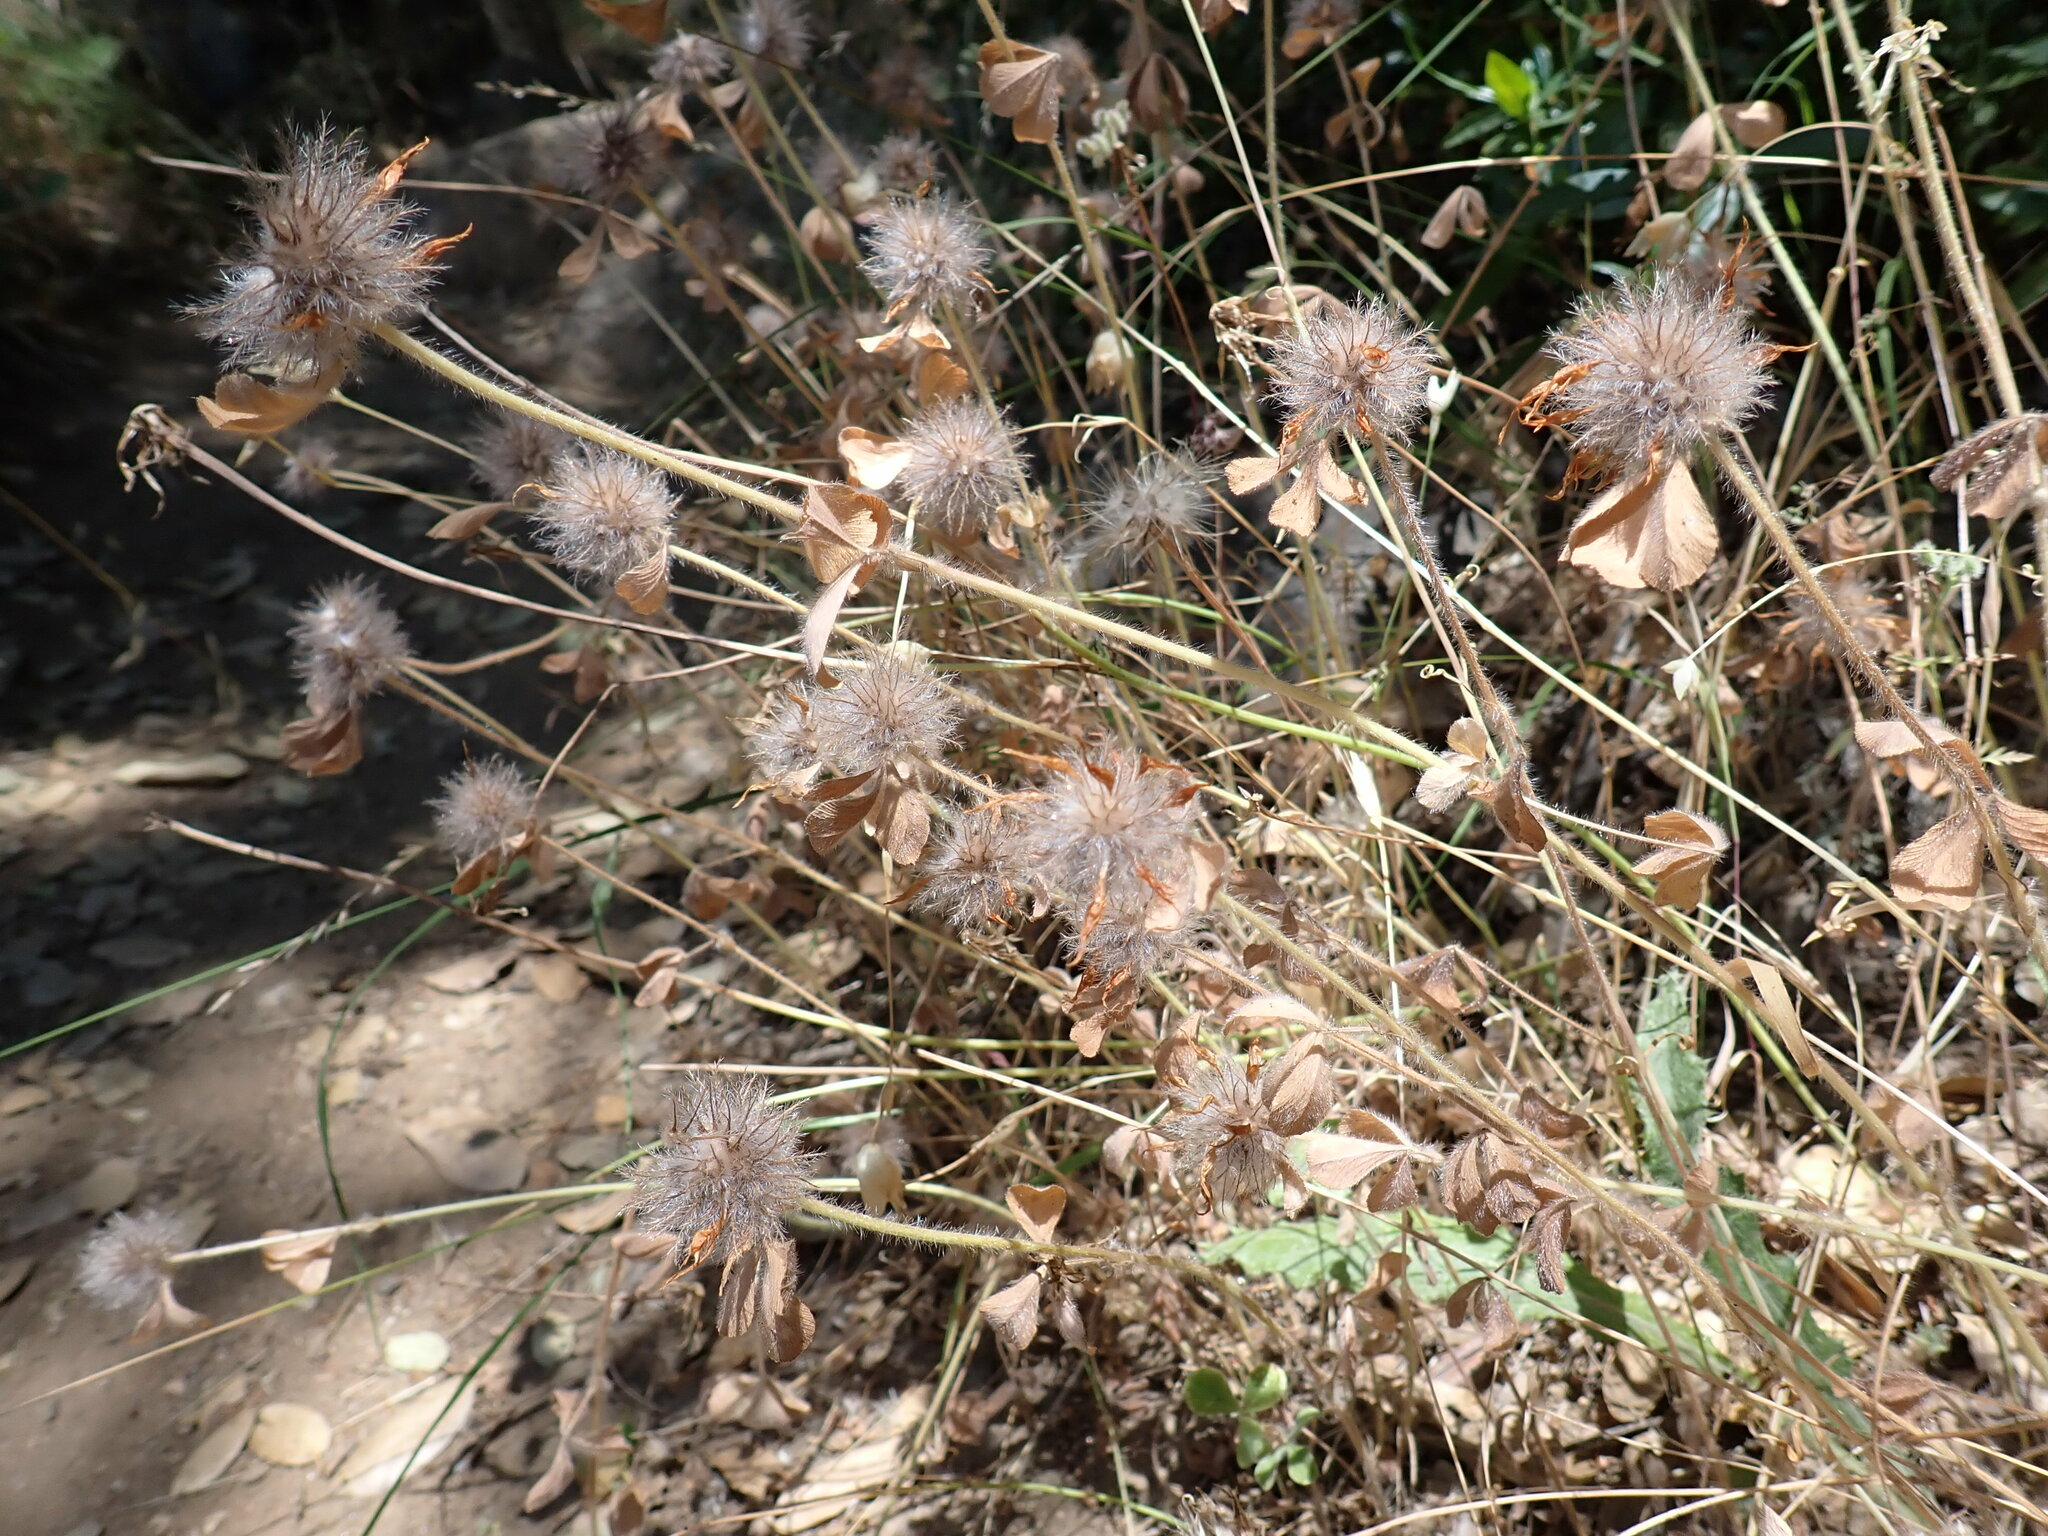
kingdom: Plantae
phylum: Tracheophyta
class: Magnoliopsida
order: Fabales
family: Fabaceae
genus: Trifolium
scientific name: Trifolium hirtum
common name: Rose clover
